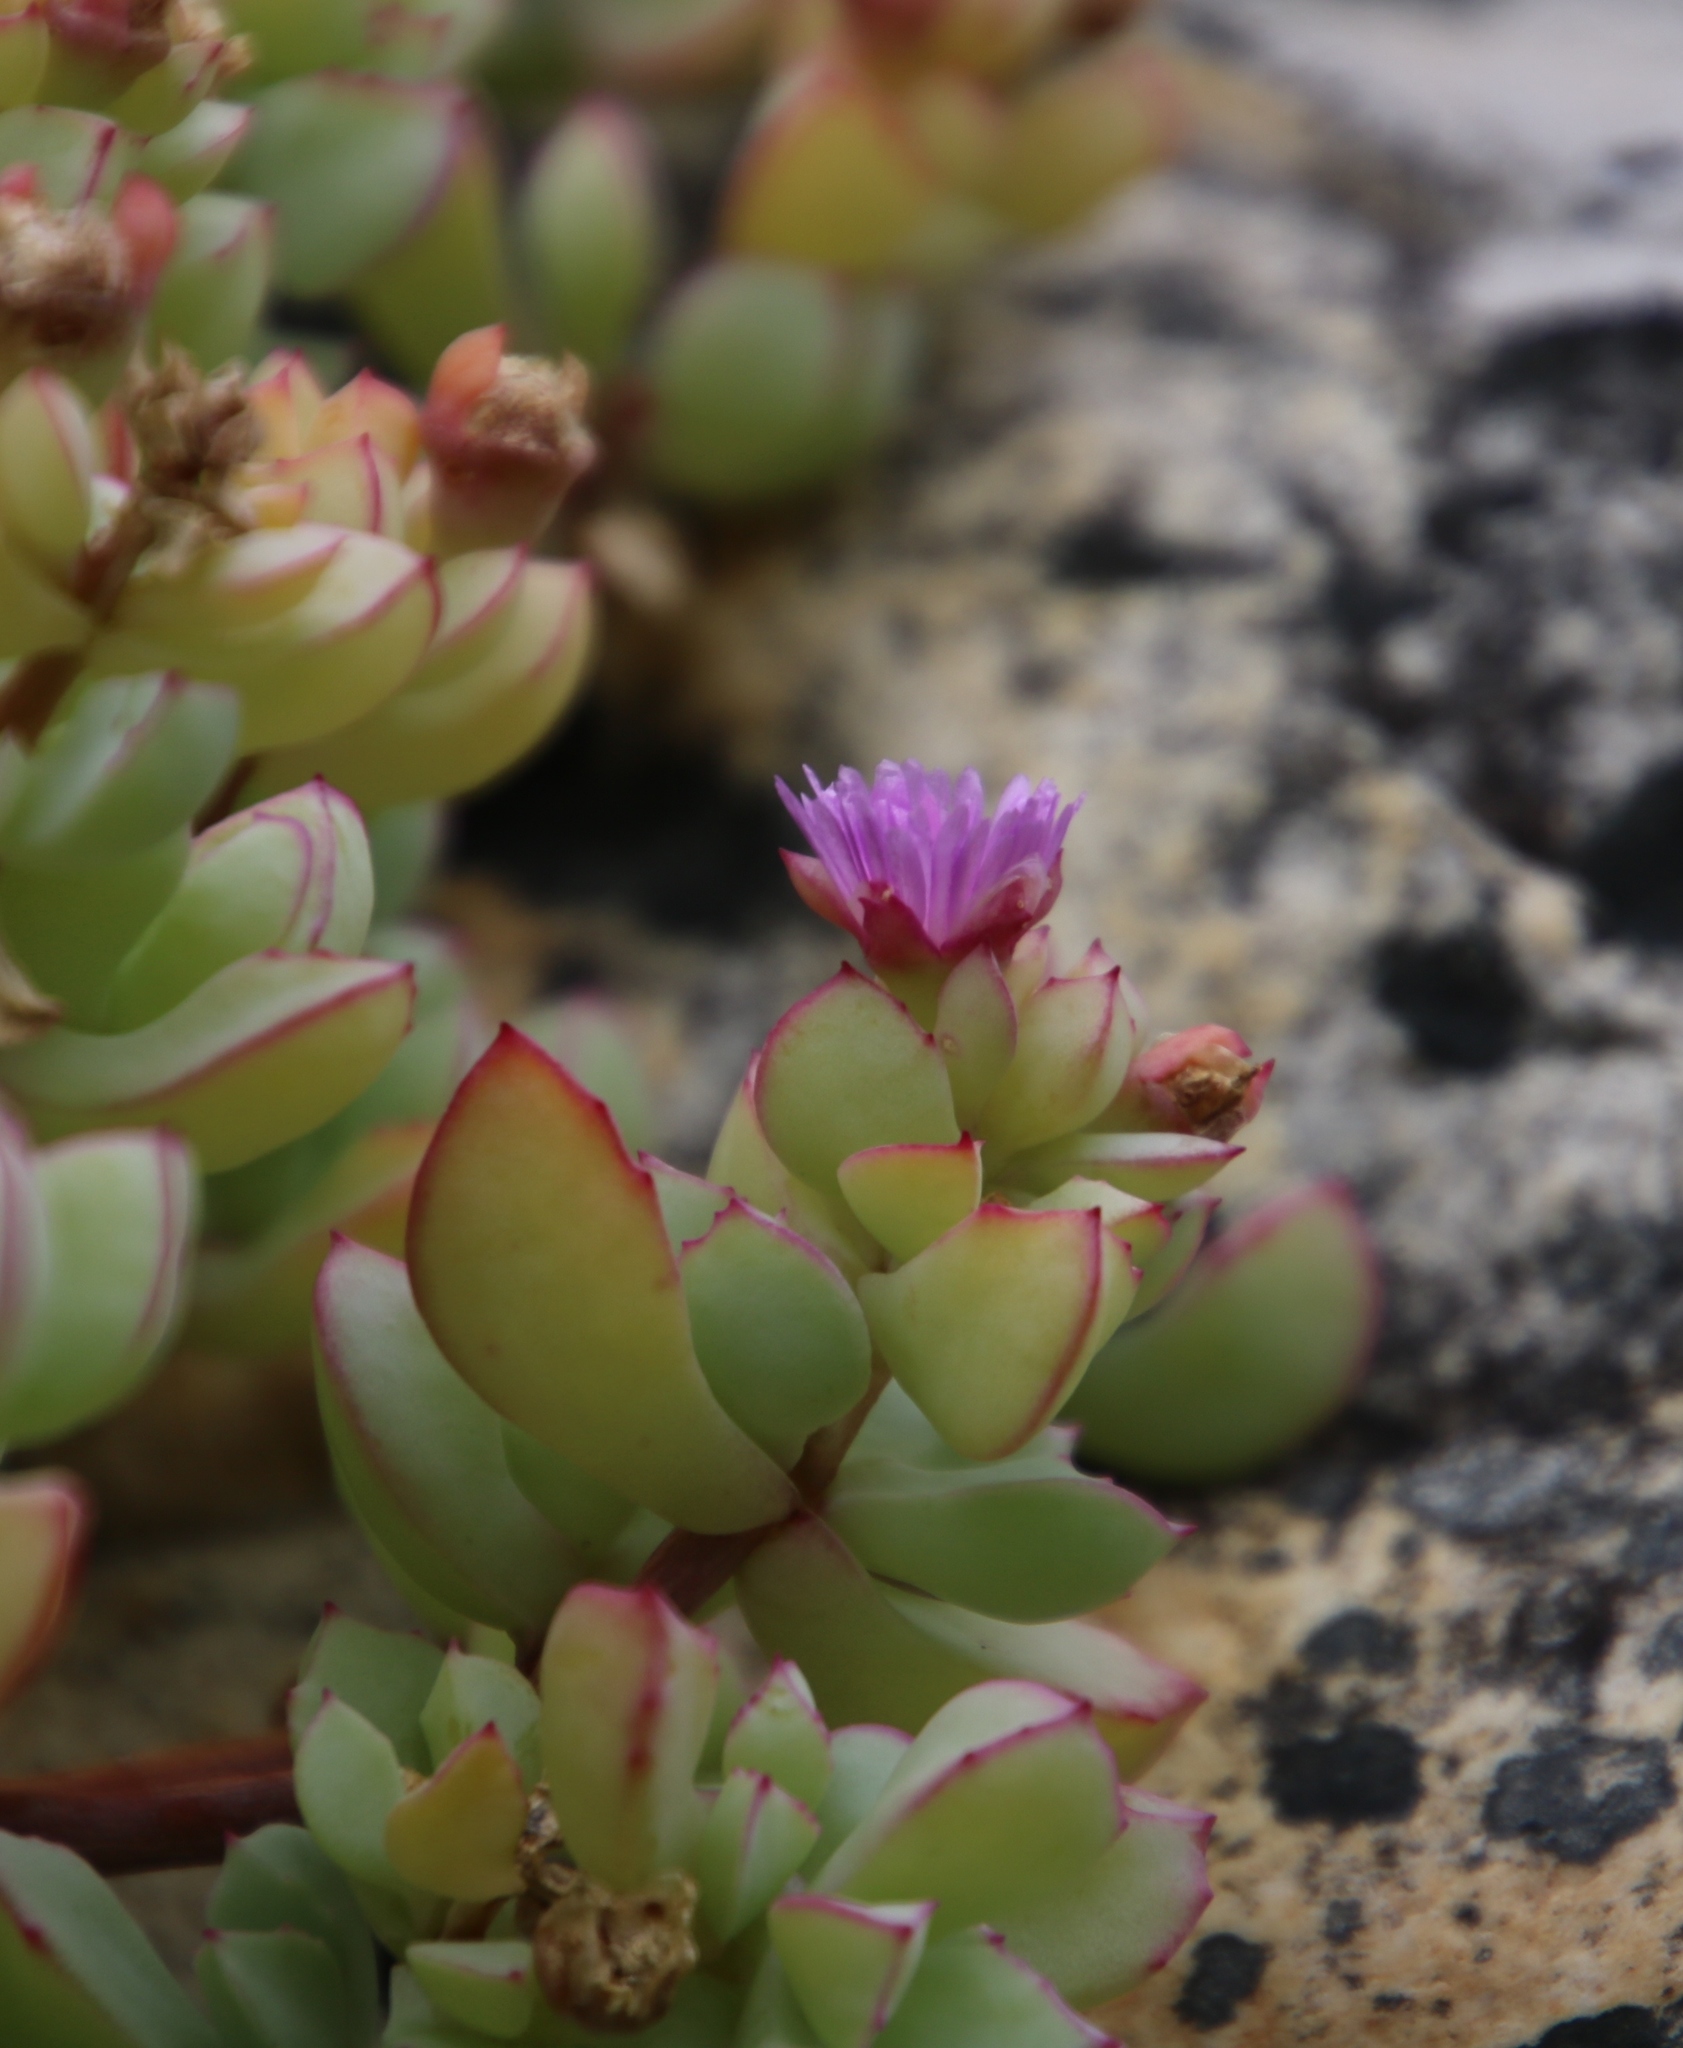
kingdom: Plantae
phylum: Tracheophyta
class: Magnoliopsida
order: Caryophyllales
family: Aizoaceae
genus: Oscularia
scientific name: Oscularia caulescens
